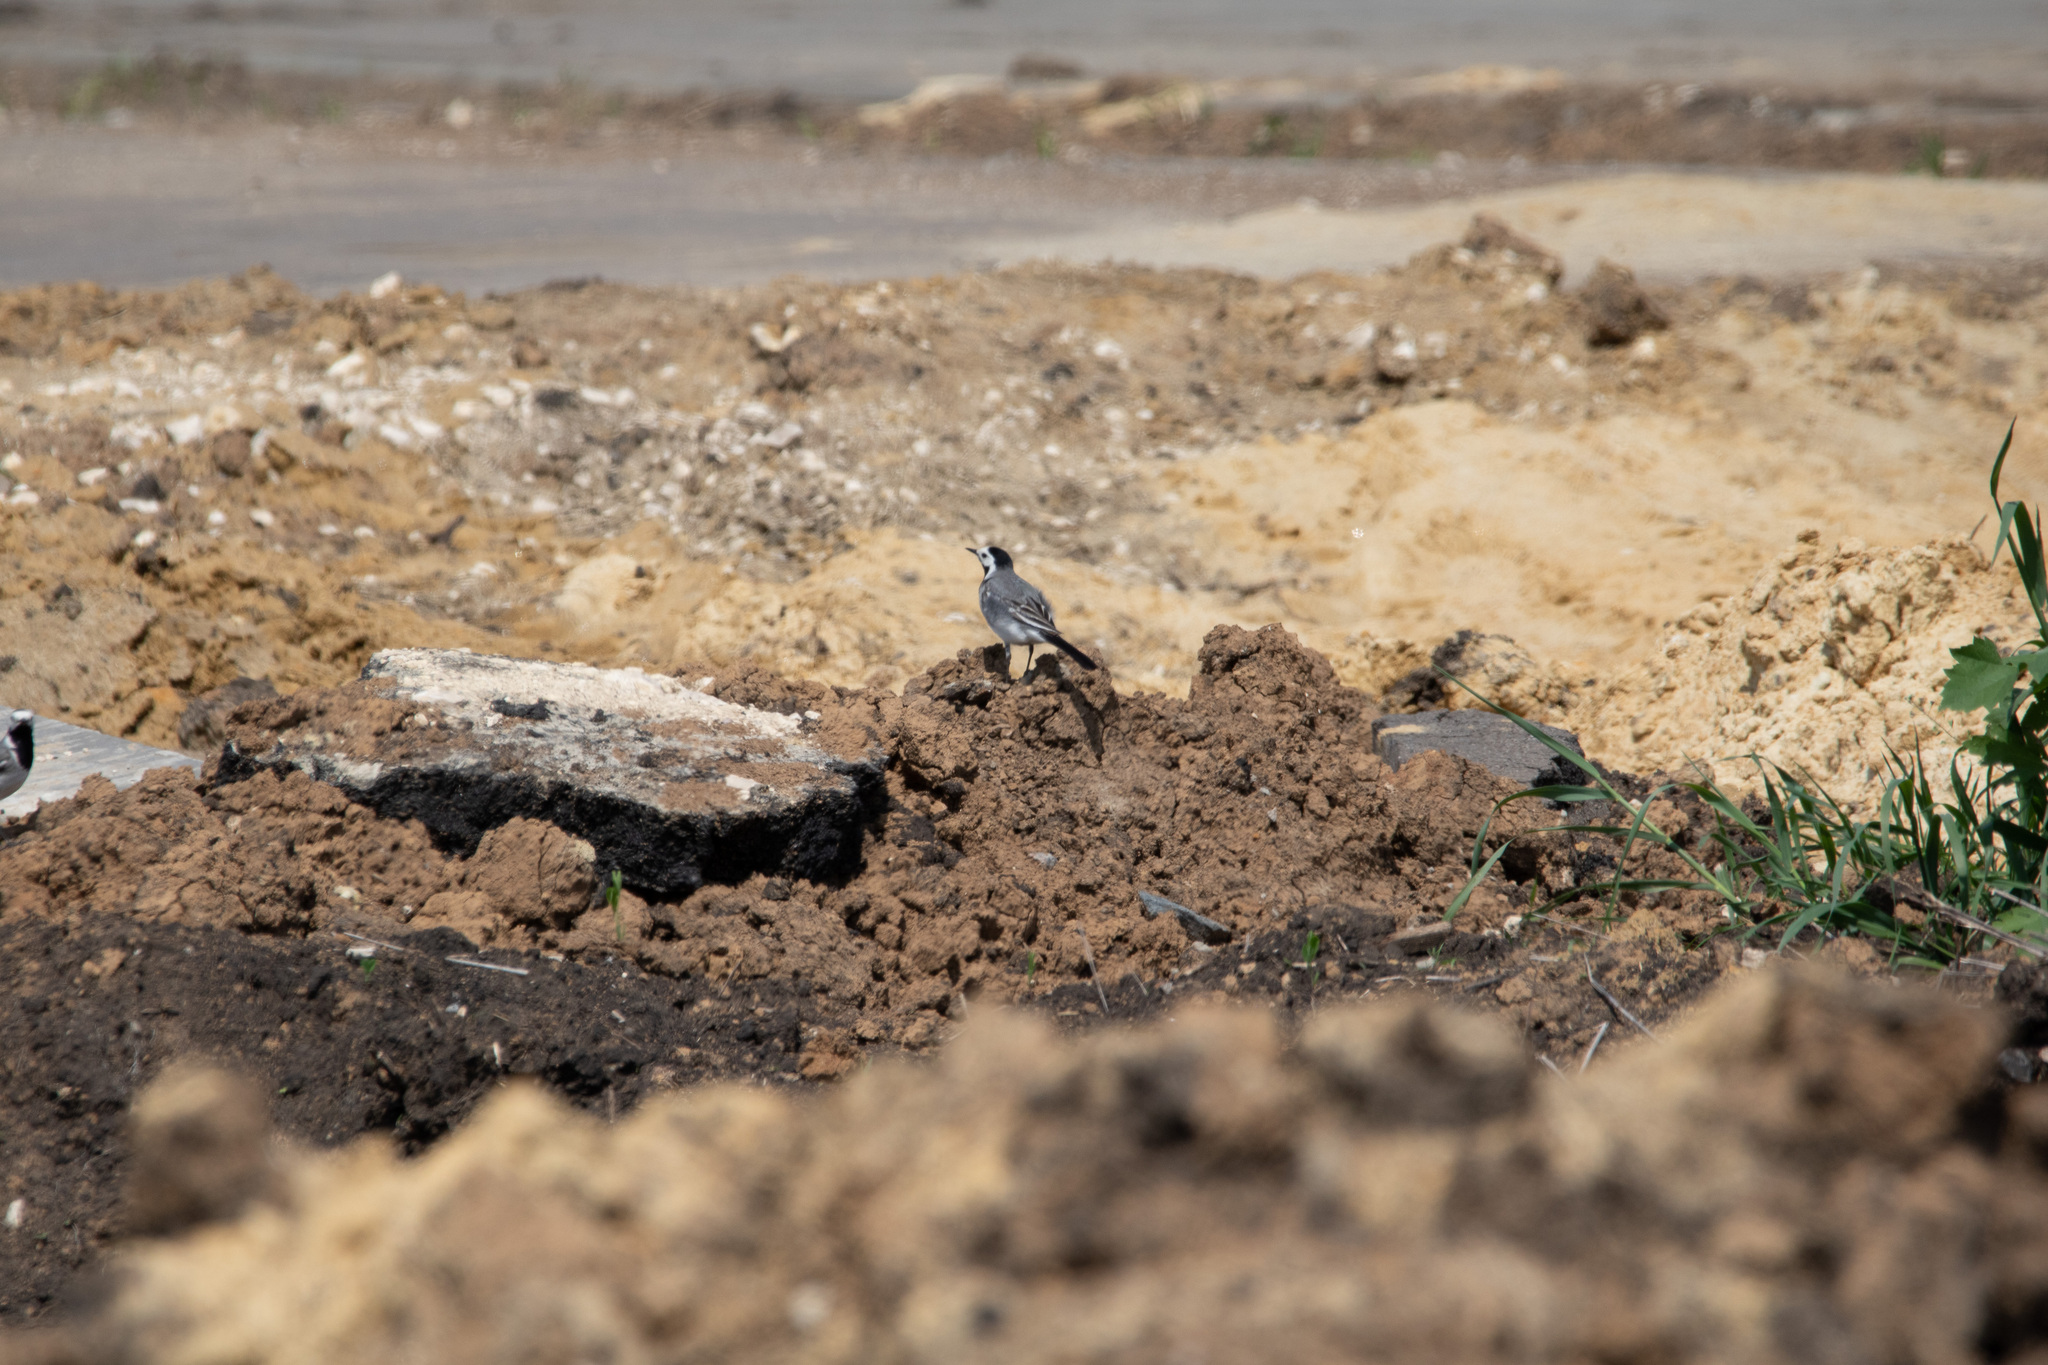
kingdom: Animalia
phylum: Chordata
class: Aves
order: Passeriformes
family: Motacillidae
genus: Motacilla
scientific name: Motacilla alba
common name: White wagtail
